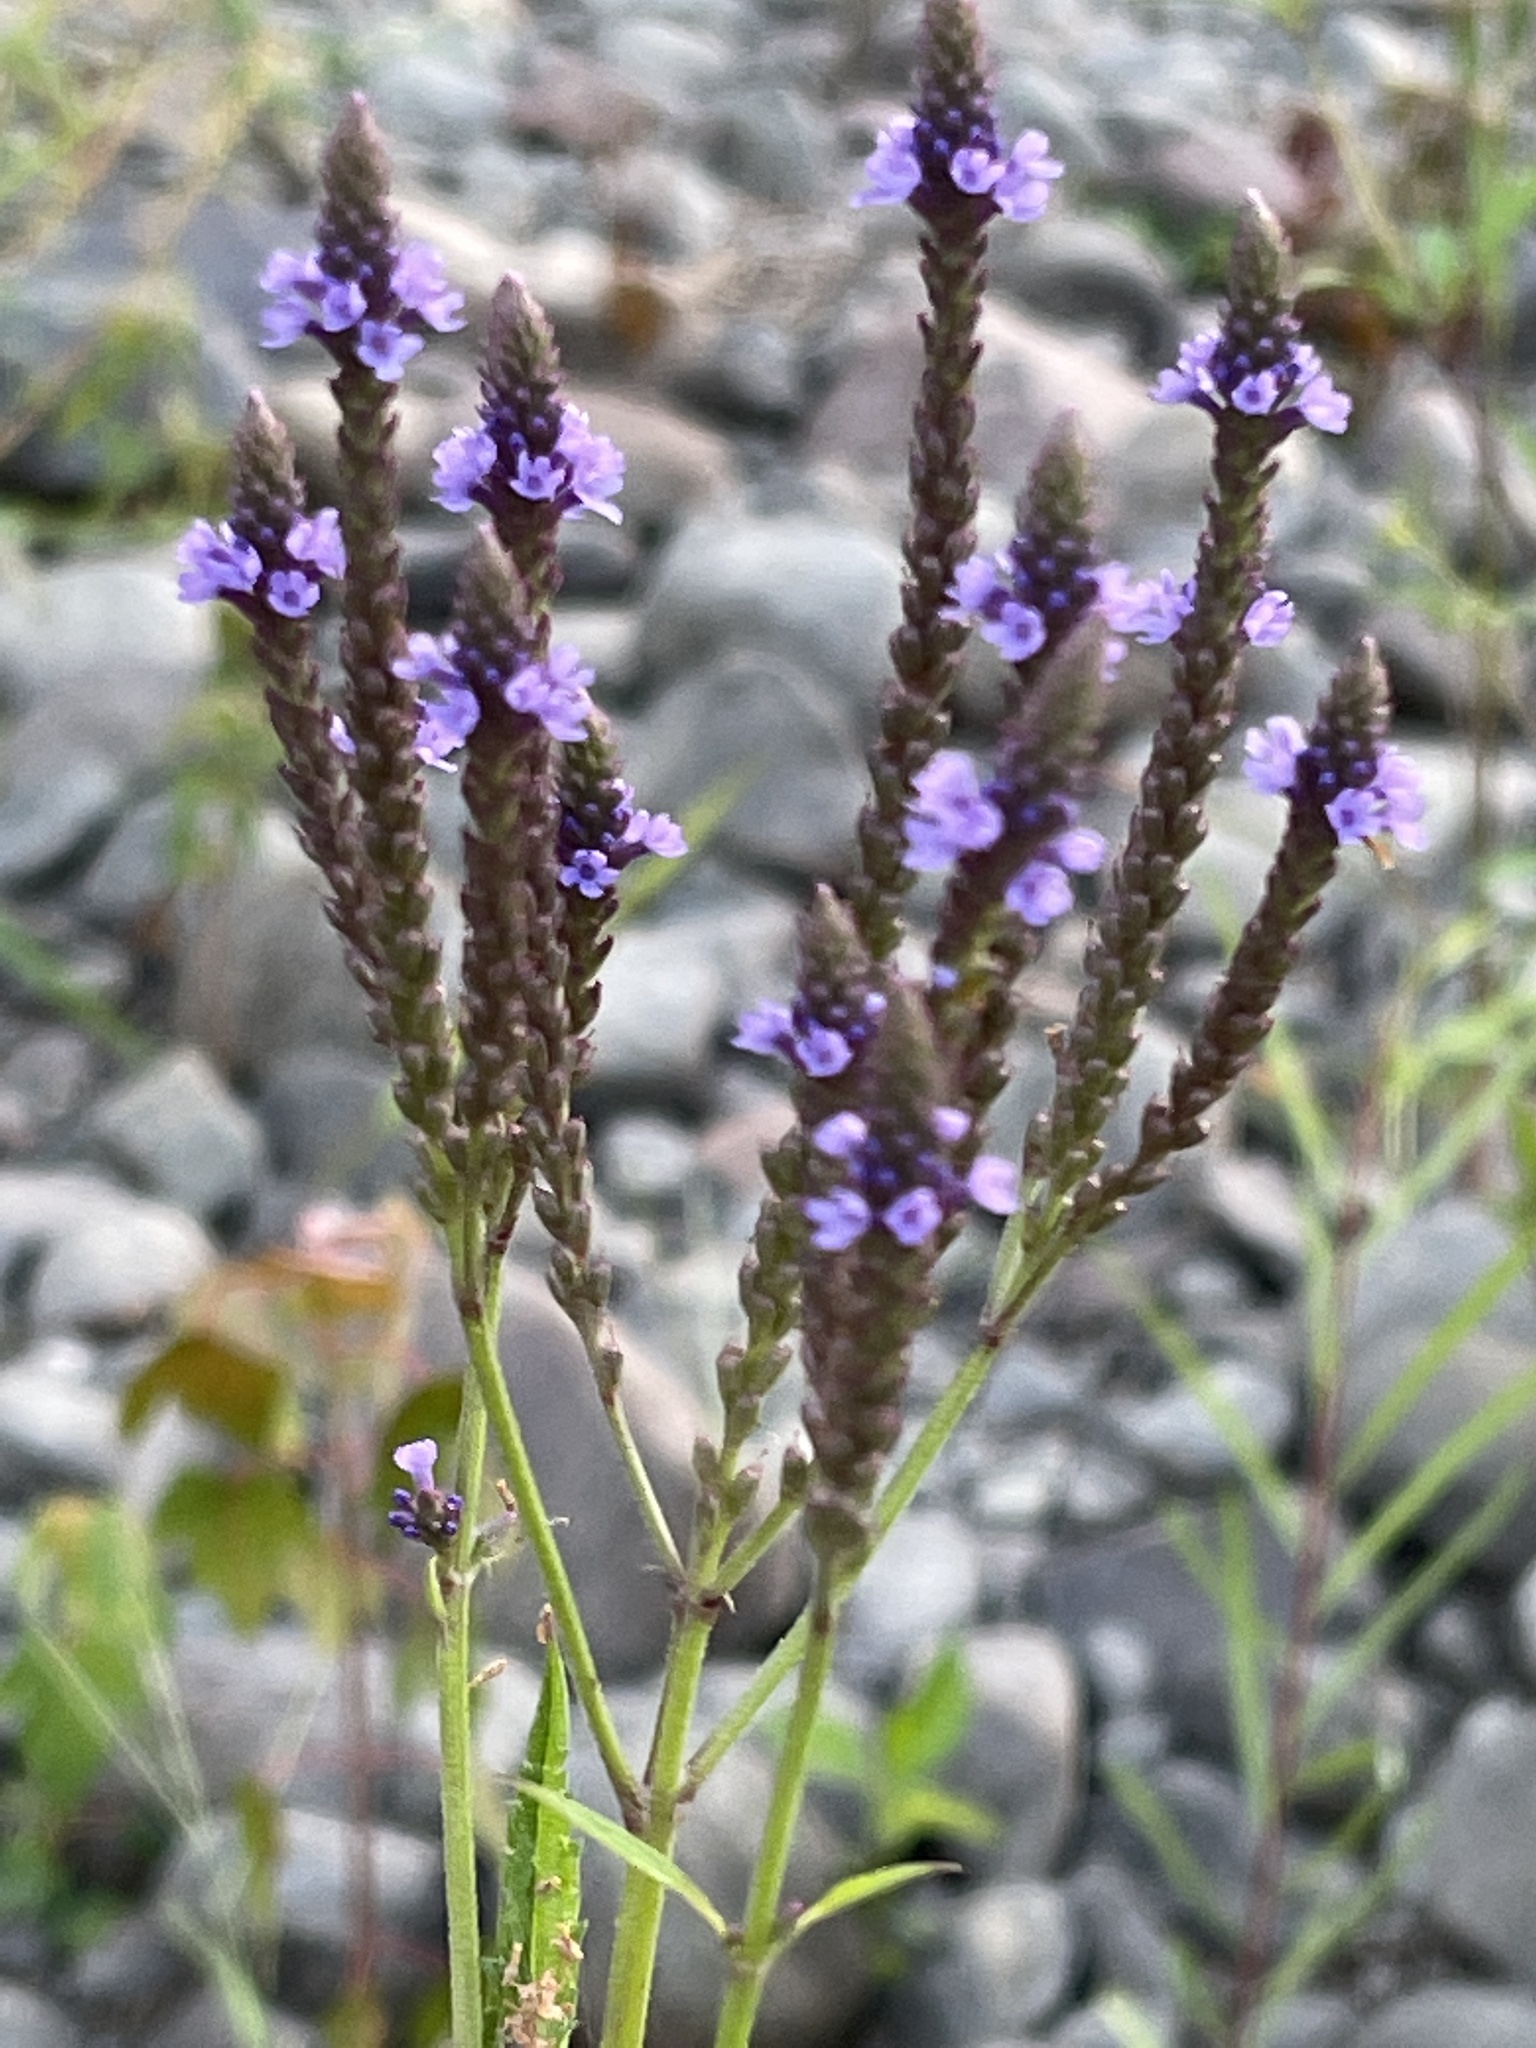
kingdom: Plantae
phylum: Tracheophyta
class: Magnoliopsida
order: Lamiales
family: Verbenaceae
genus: Verbena
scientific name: Verbena hastata
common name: American blue vervain
